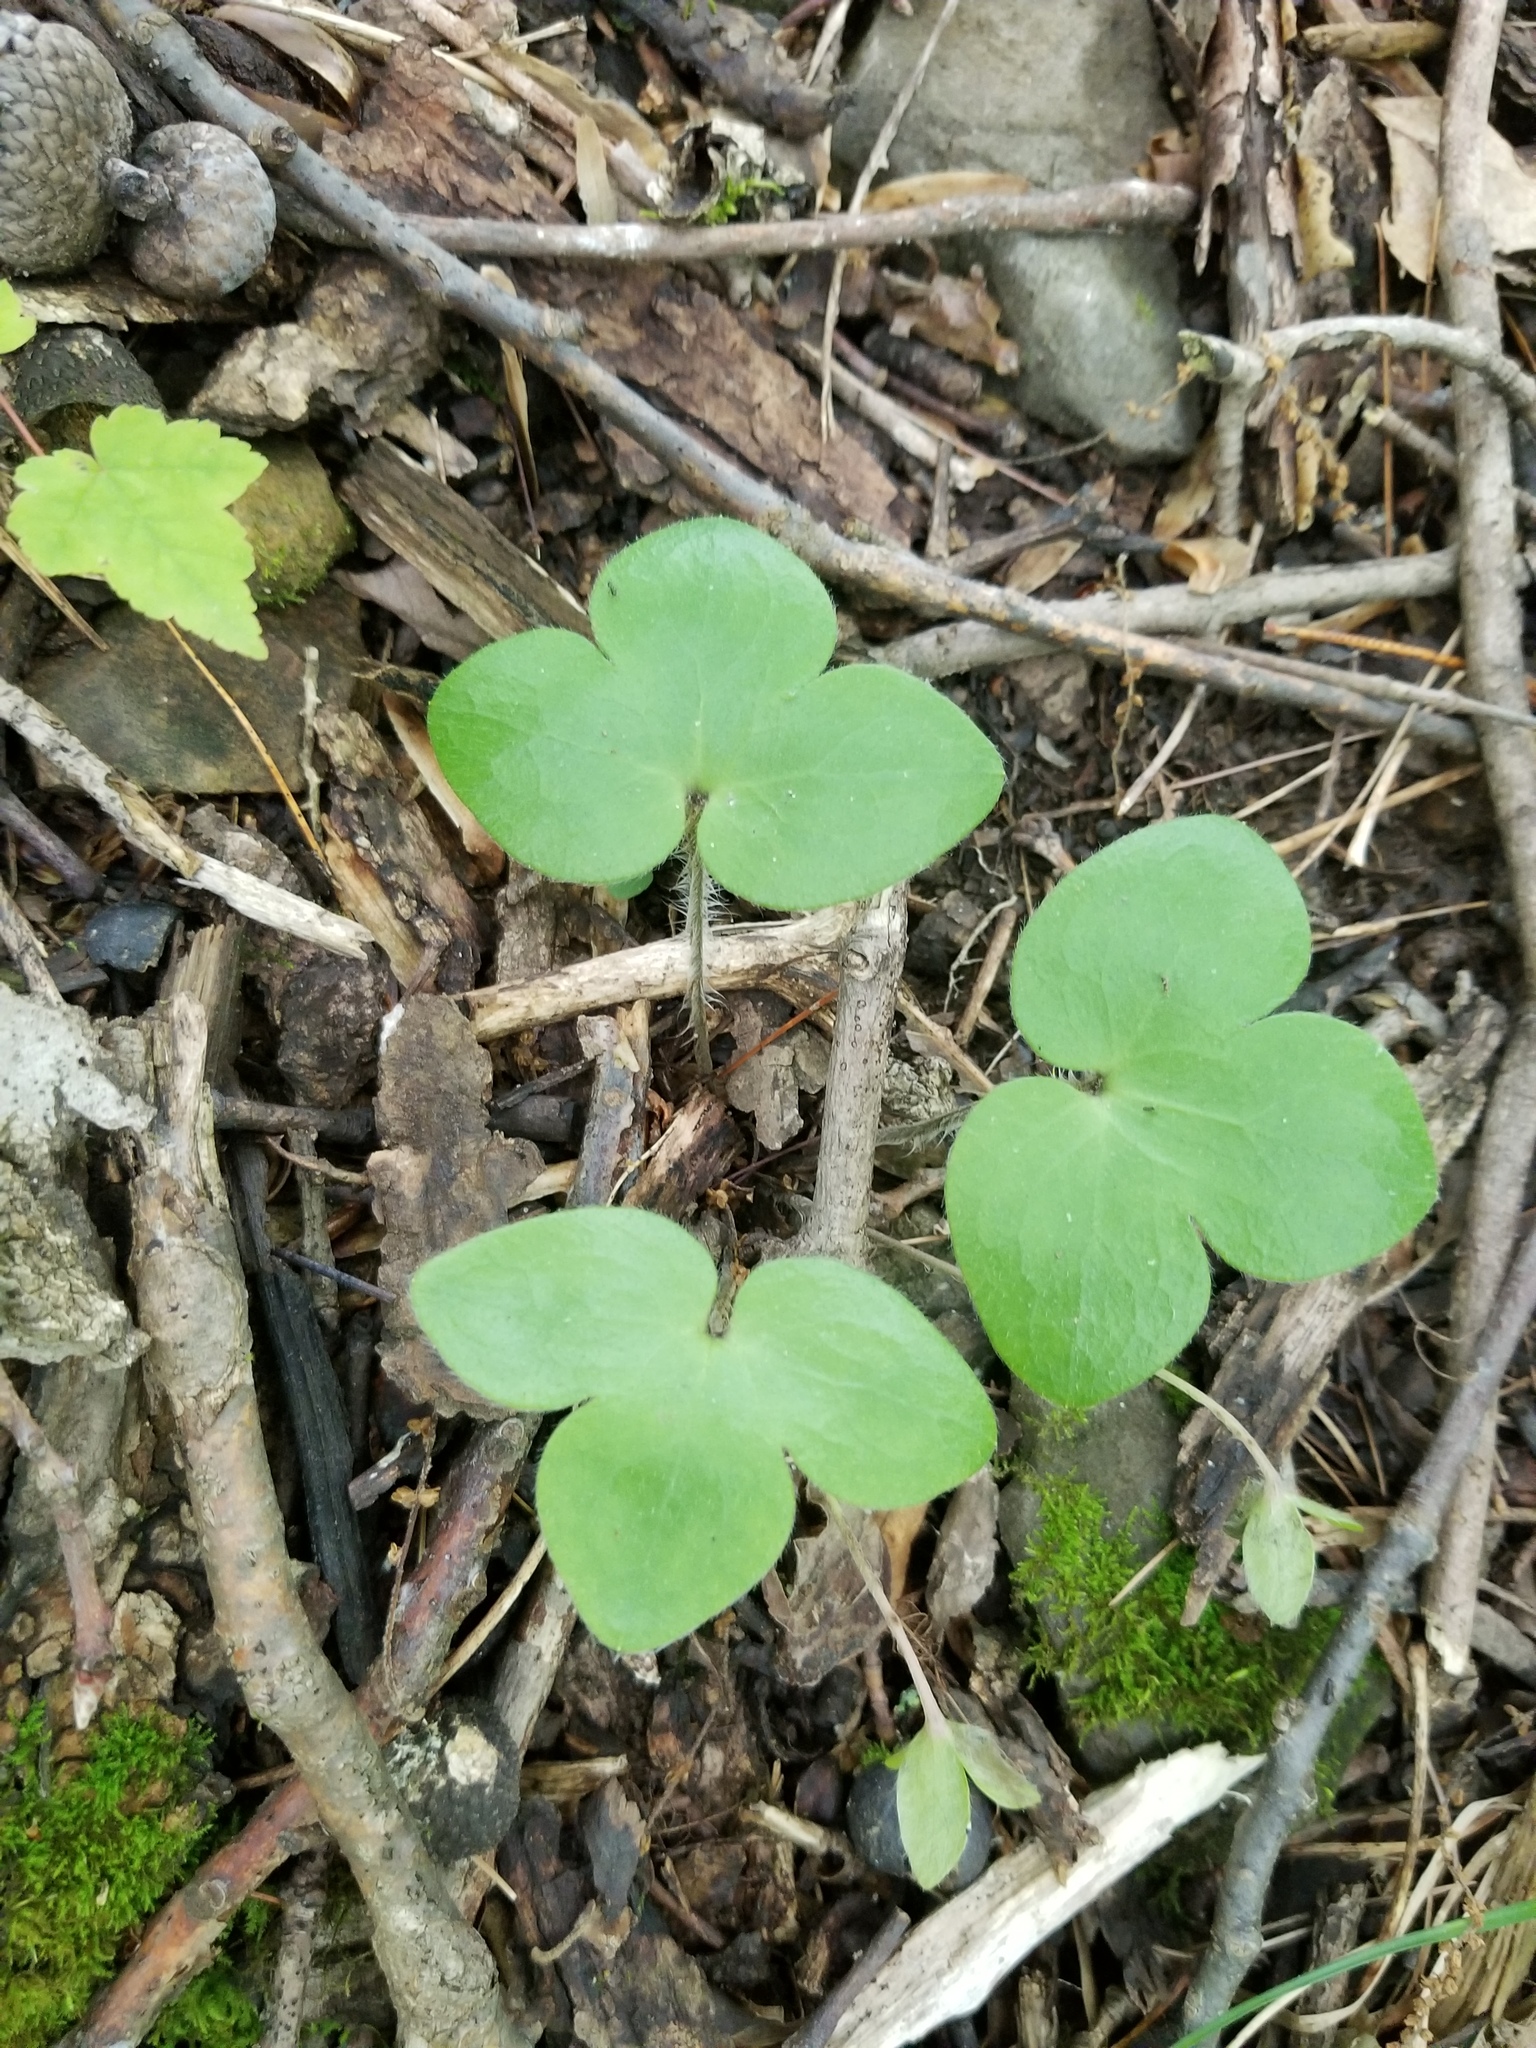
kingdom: Plantae
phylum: Tracheophyta
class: Magnoliopsida
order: Ranunculales
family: Ranunculaceae
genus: Hepatica
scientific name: Hepatica americana
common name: American hepatica
